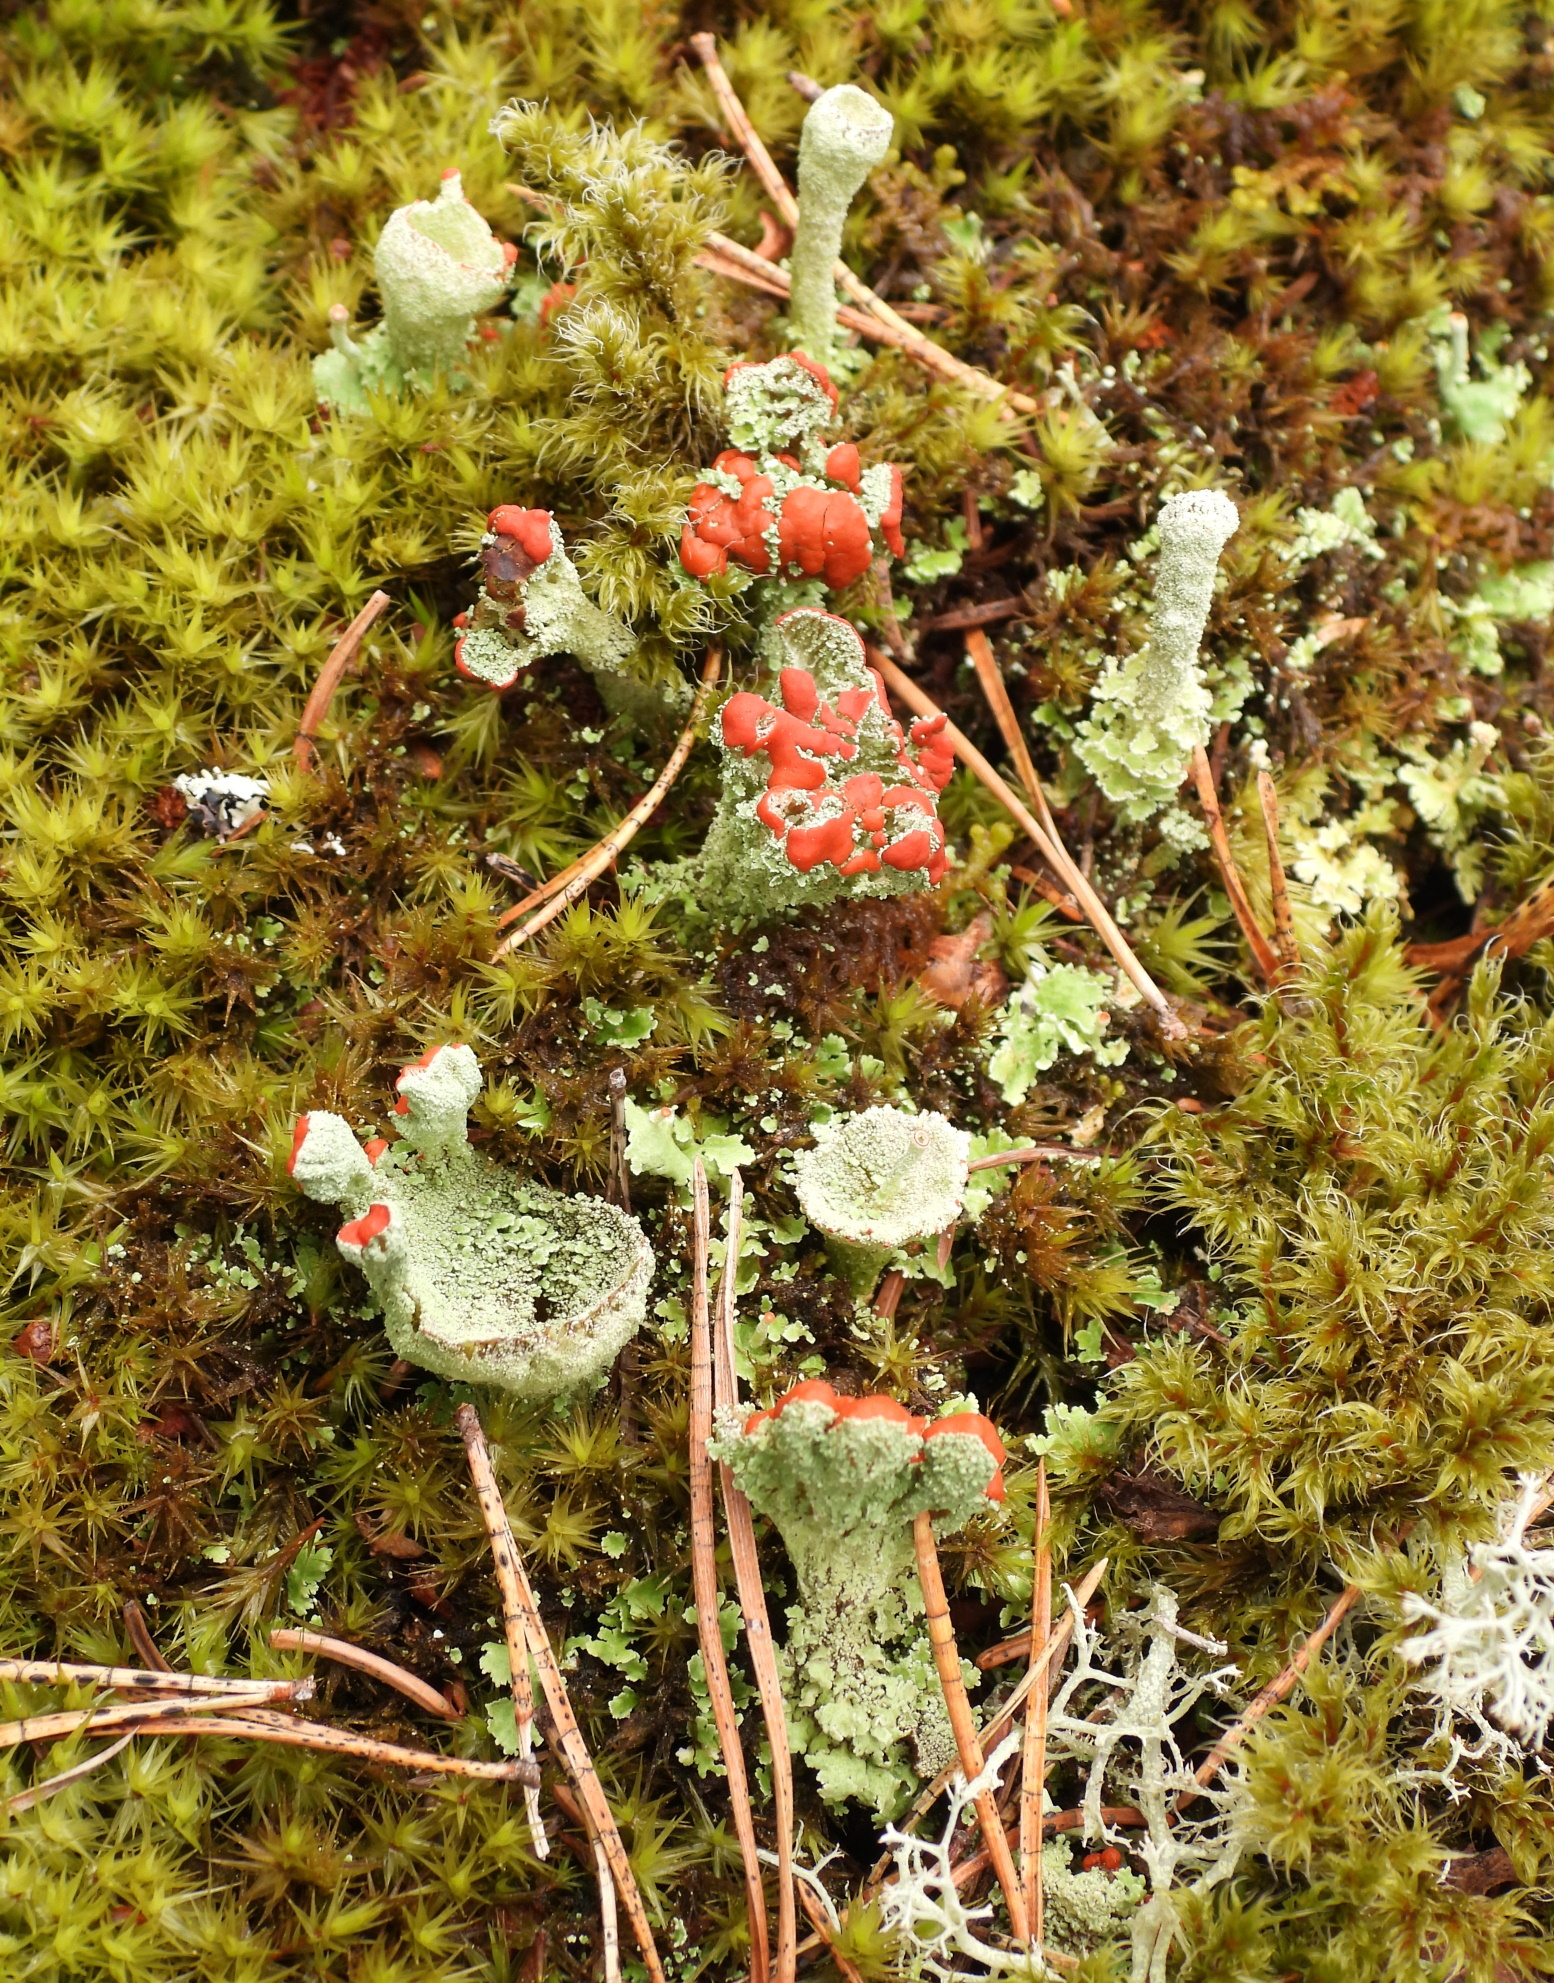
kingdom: Fungi
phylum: Ascomycota
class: Lecanoromycetes
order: Lecanorales
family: Cladoniaceae
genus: Cladonia
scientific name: Cladonia coccifera
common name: Scarlet-cup lichen
